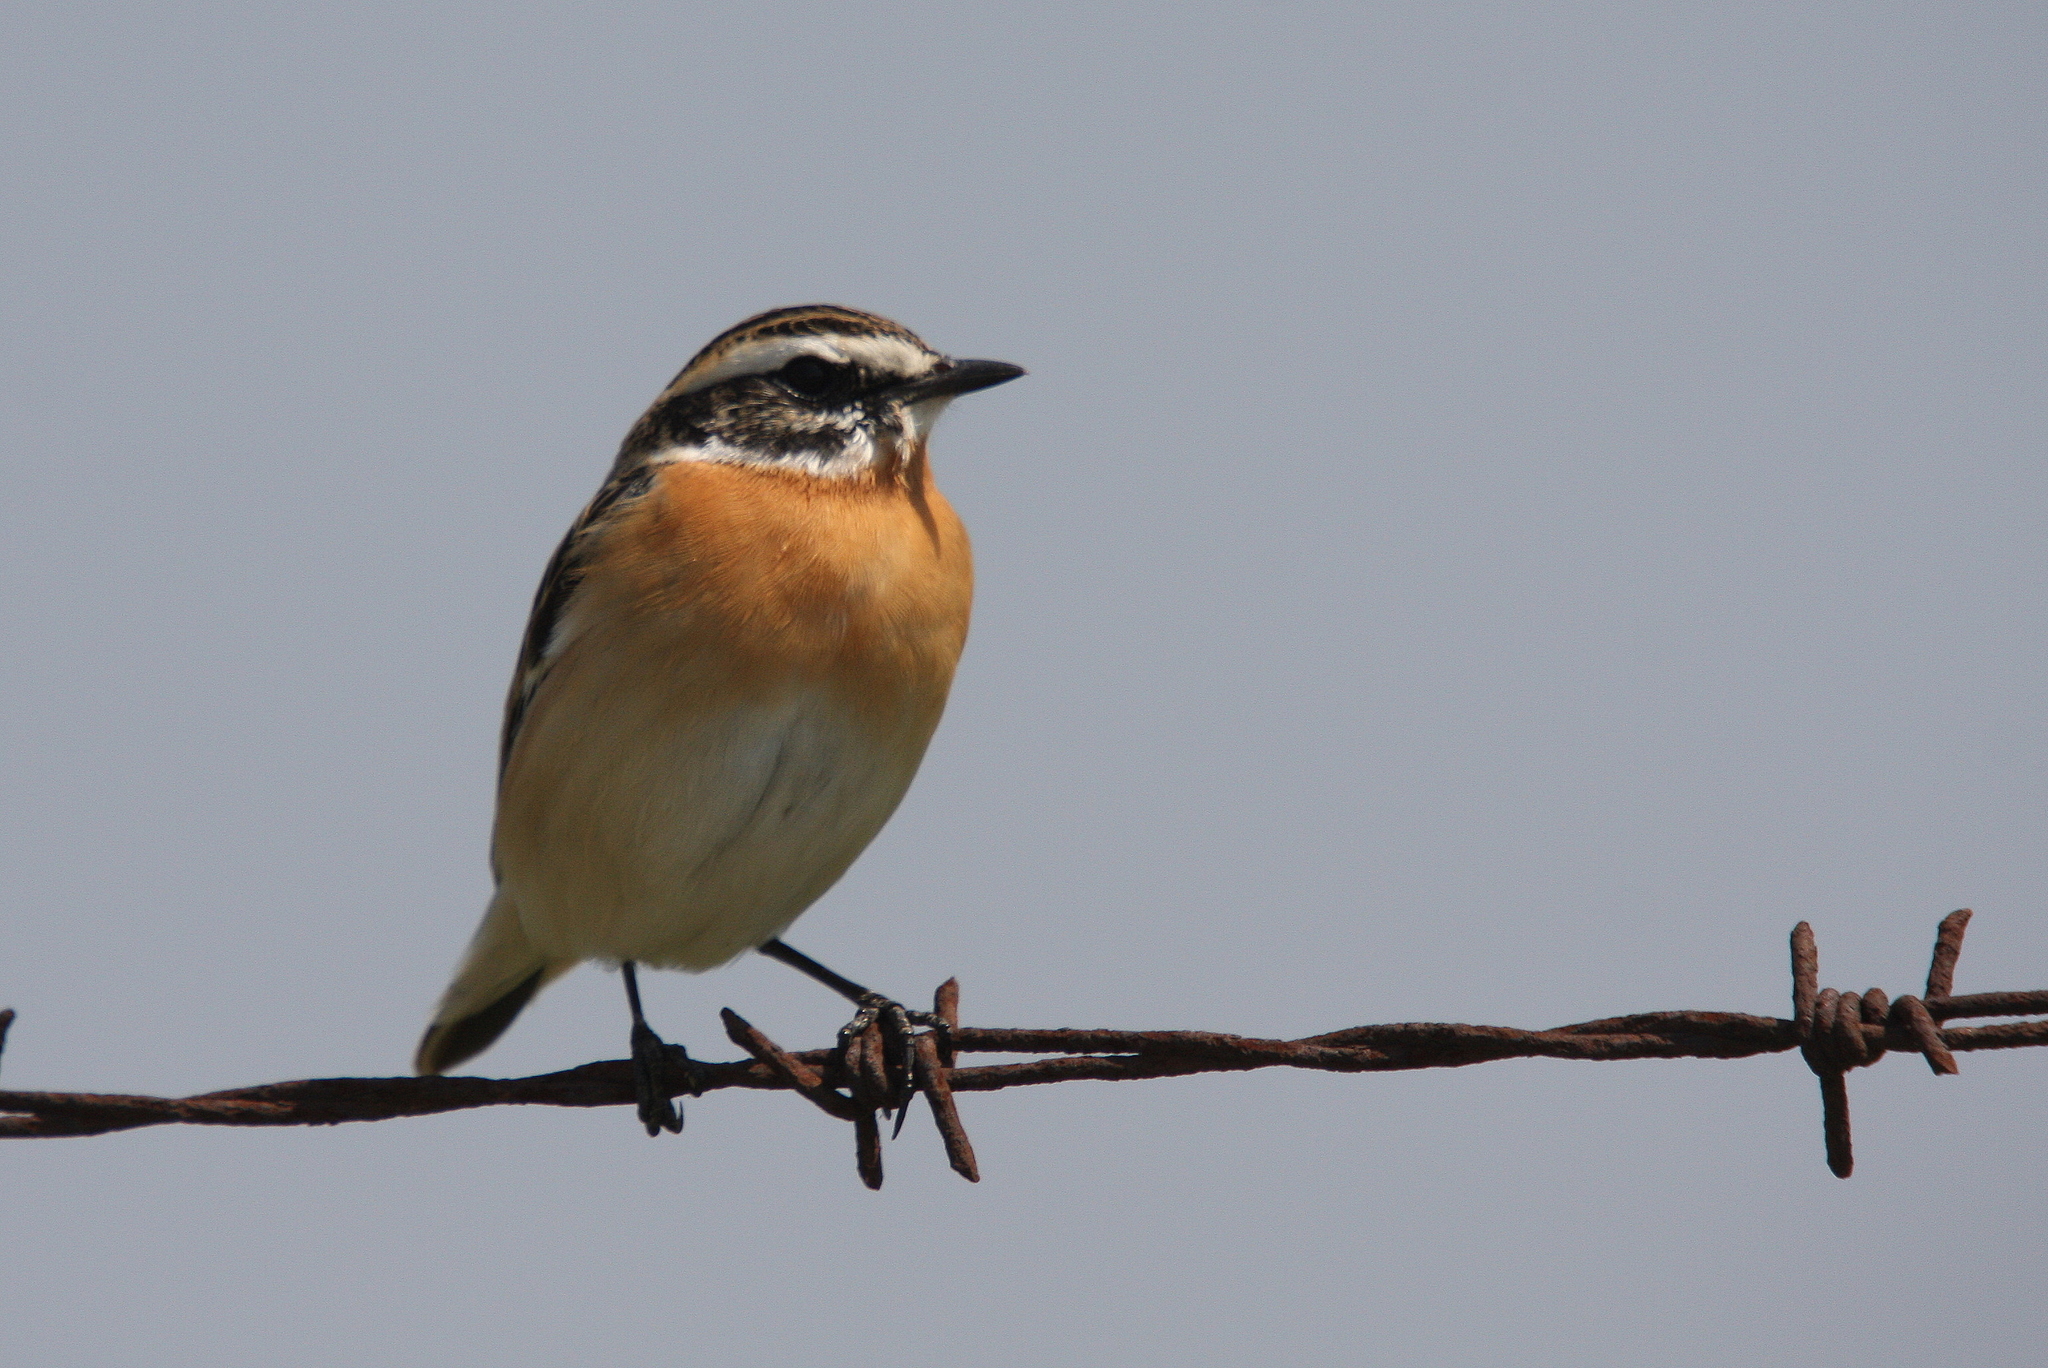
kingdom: Animalia
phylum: Chordata
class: Aves
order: Passeriformes
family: Muscicapidae
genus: Saxicola
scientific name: Saxicola rubetra
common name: Whinchat
